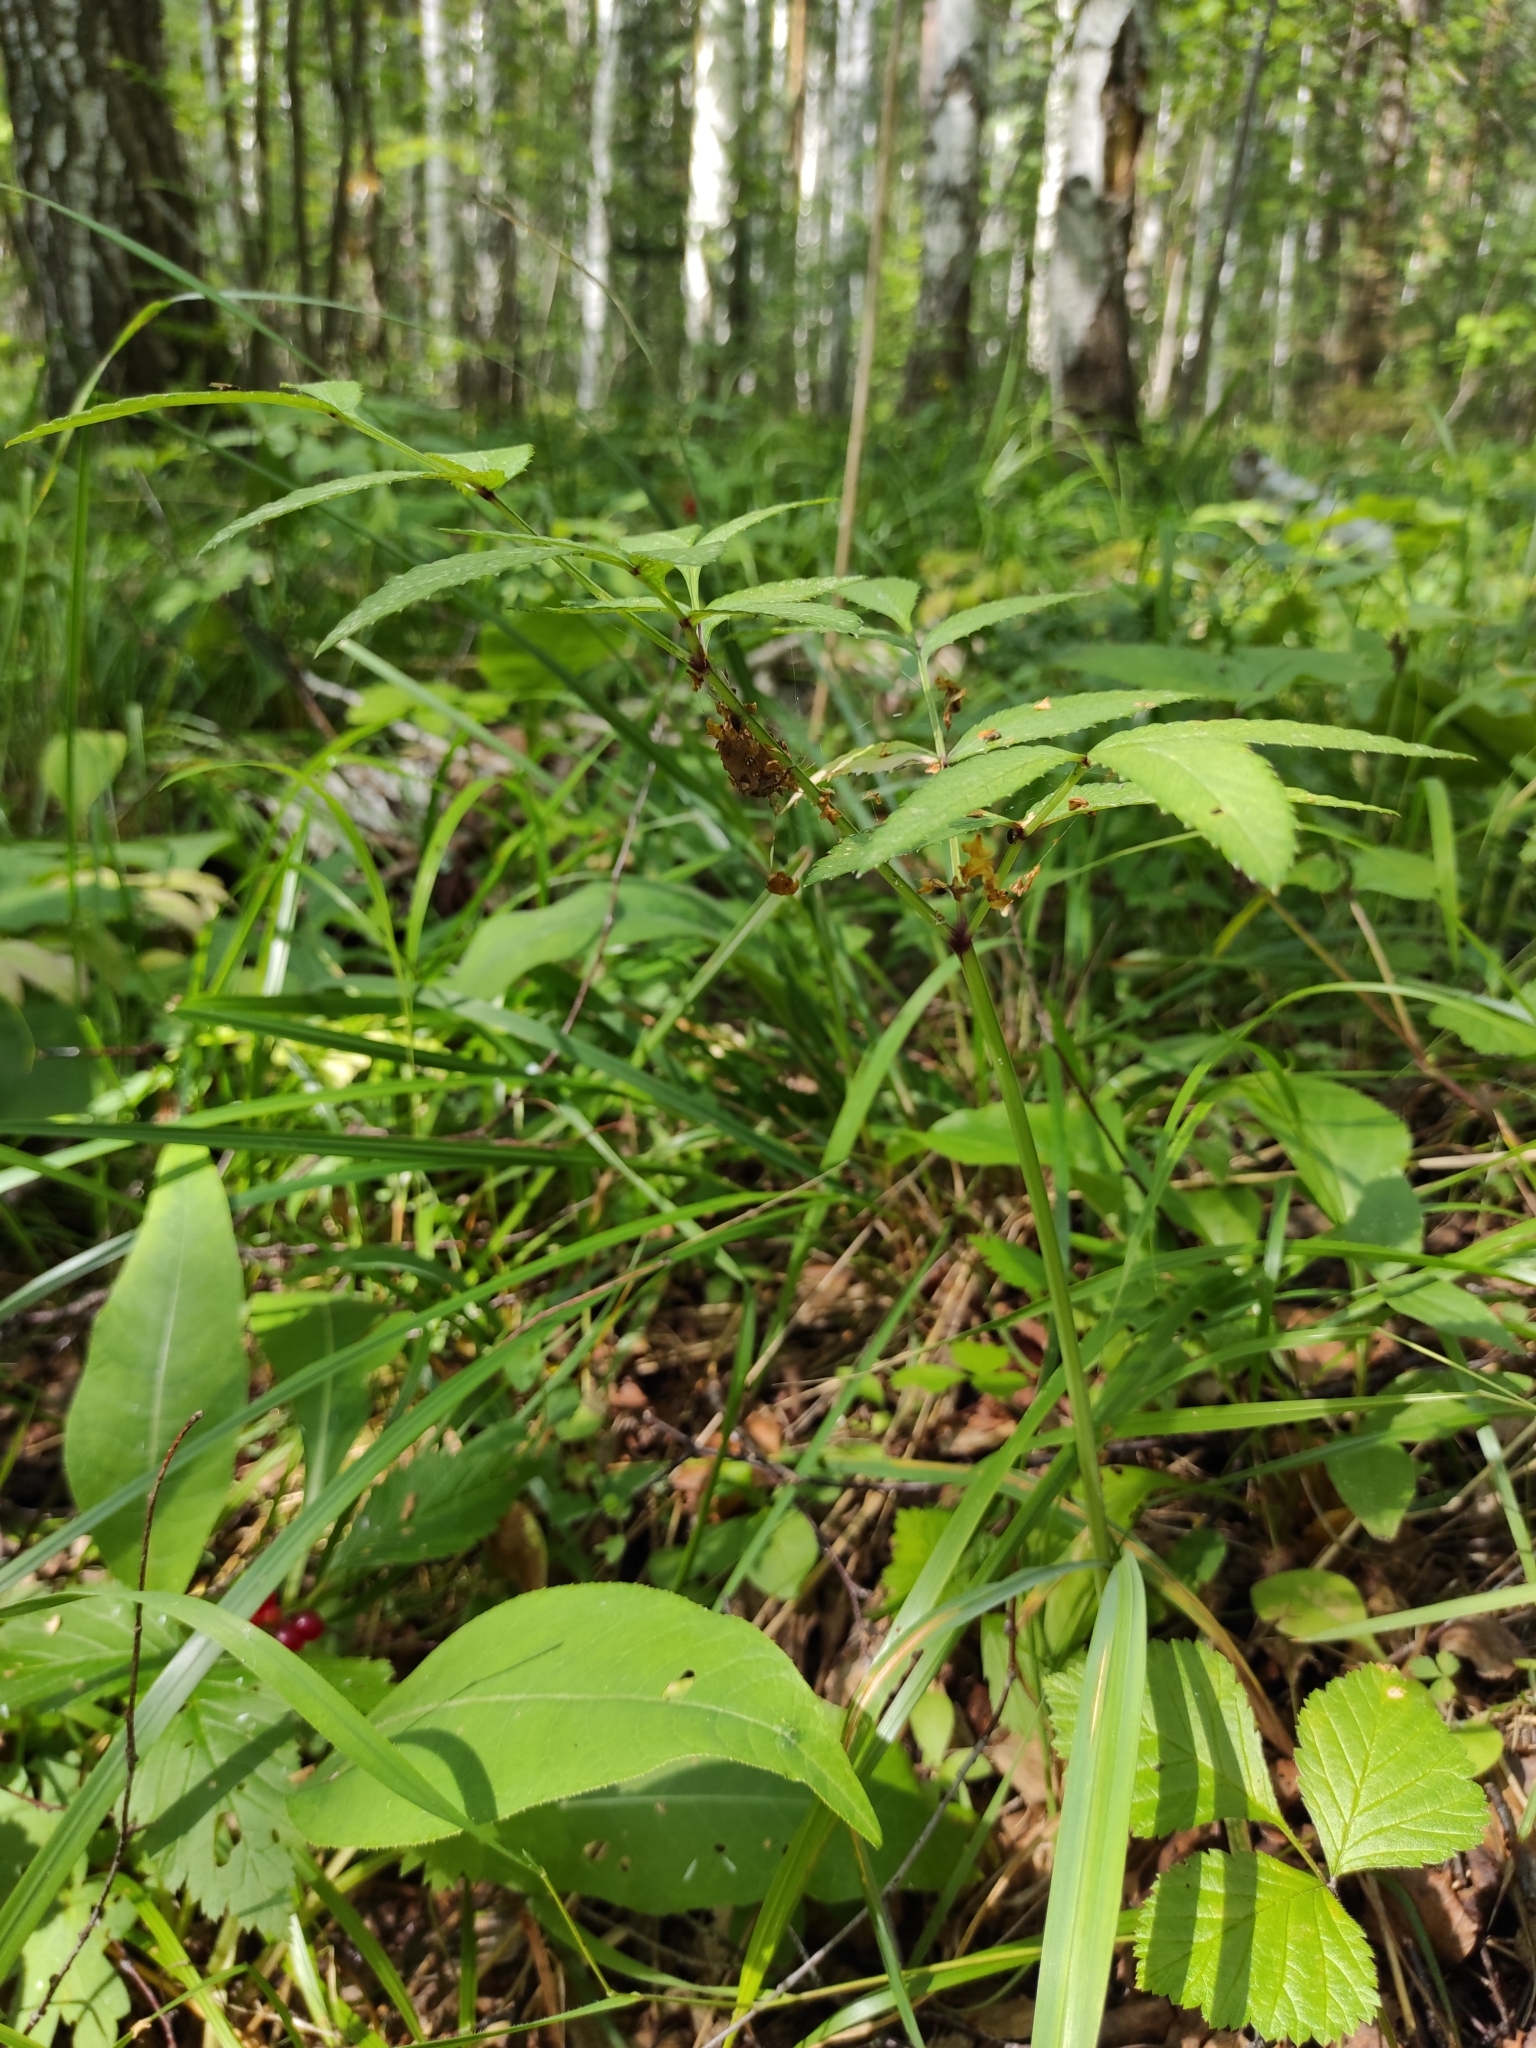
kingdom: Plantae
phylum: Tracheophyta
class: Magnoliopsida
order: Apiales
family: Apiaceae
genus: Angelica
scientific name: Angelica sylvestris
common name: Wild angelica
